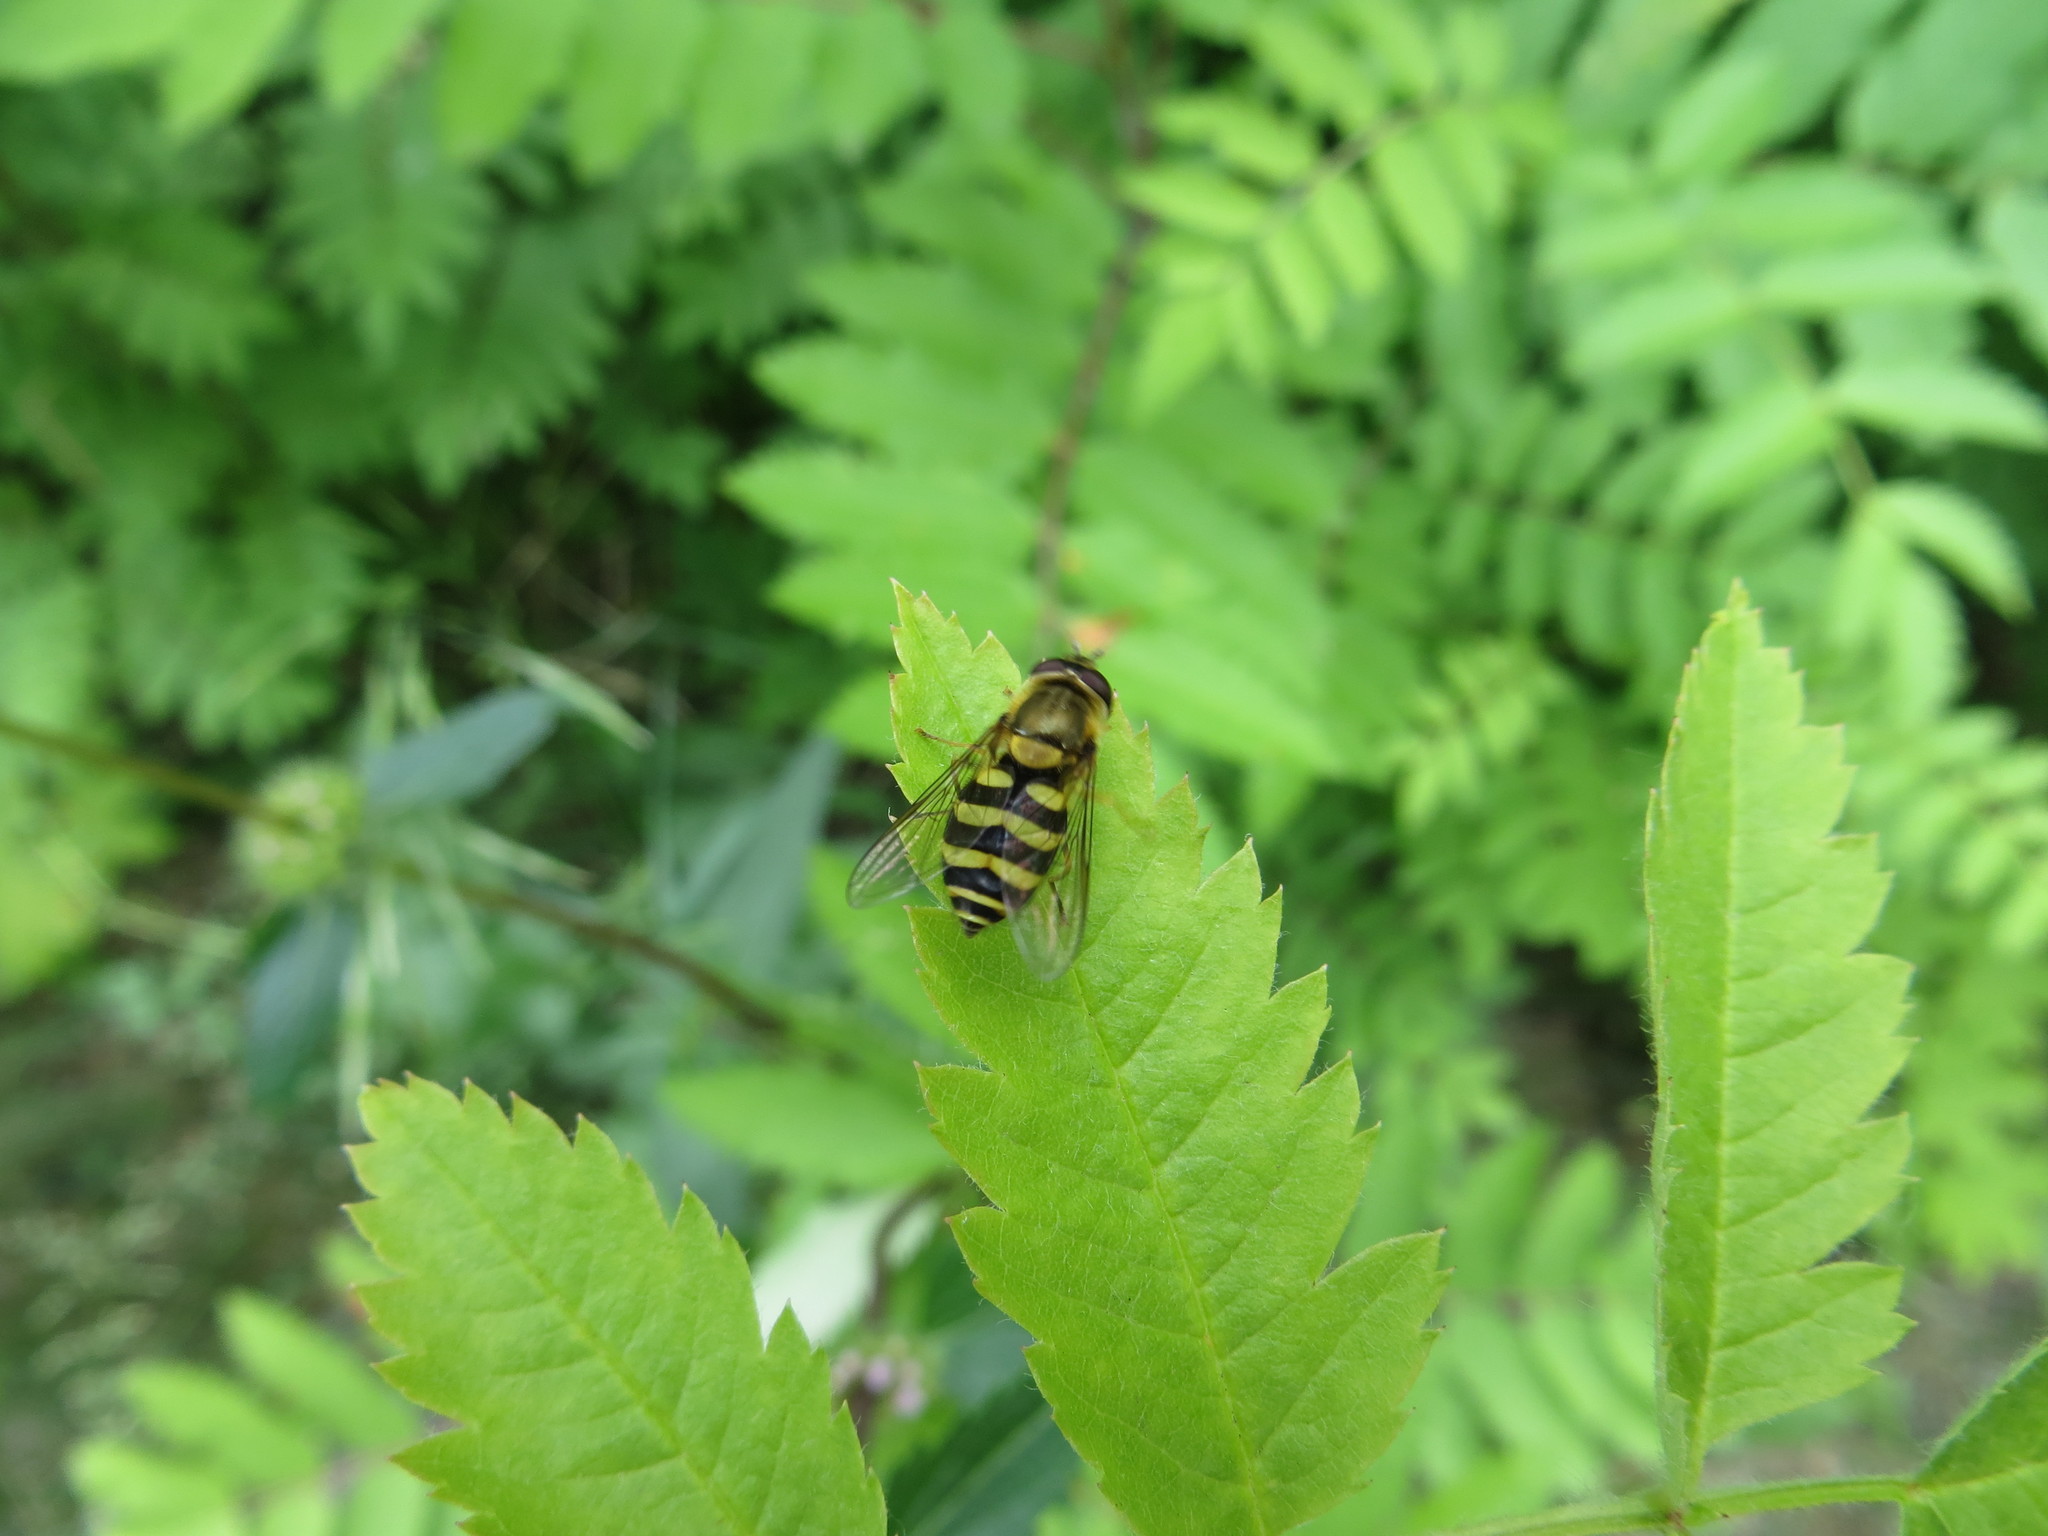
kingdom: Animalia
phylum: Arthropoda
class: Insecta
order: Diptera
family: Syrphidae
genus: Syrphus
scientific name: Syrphus
